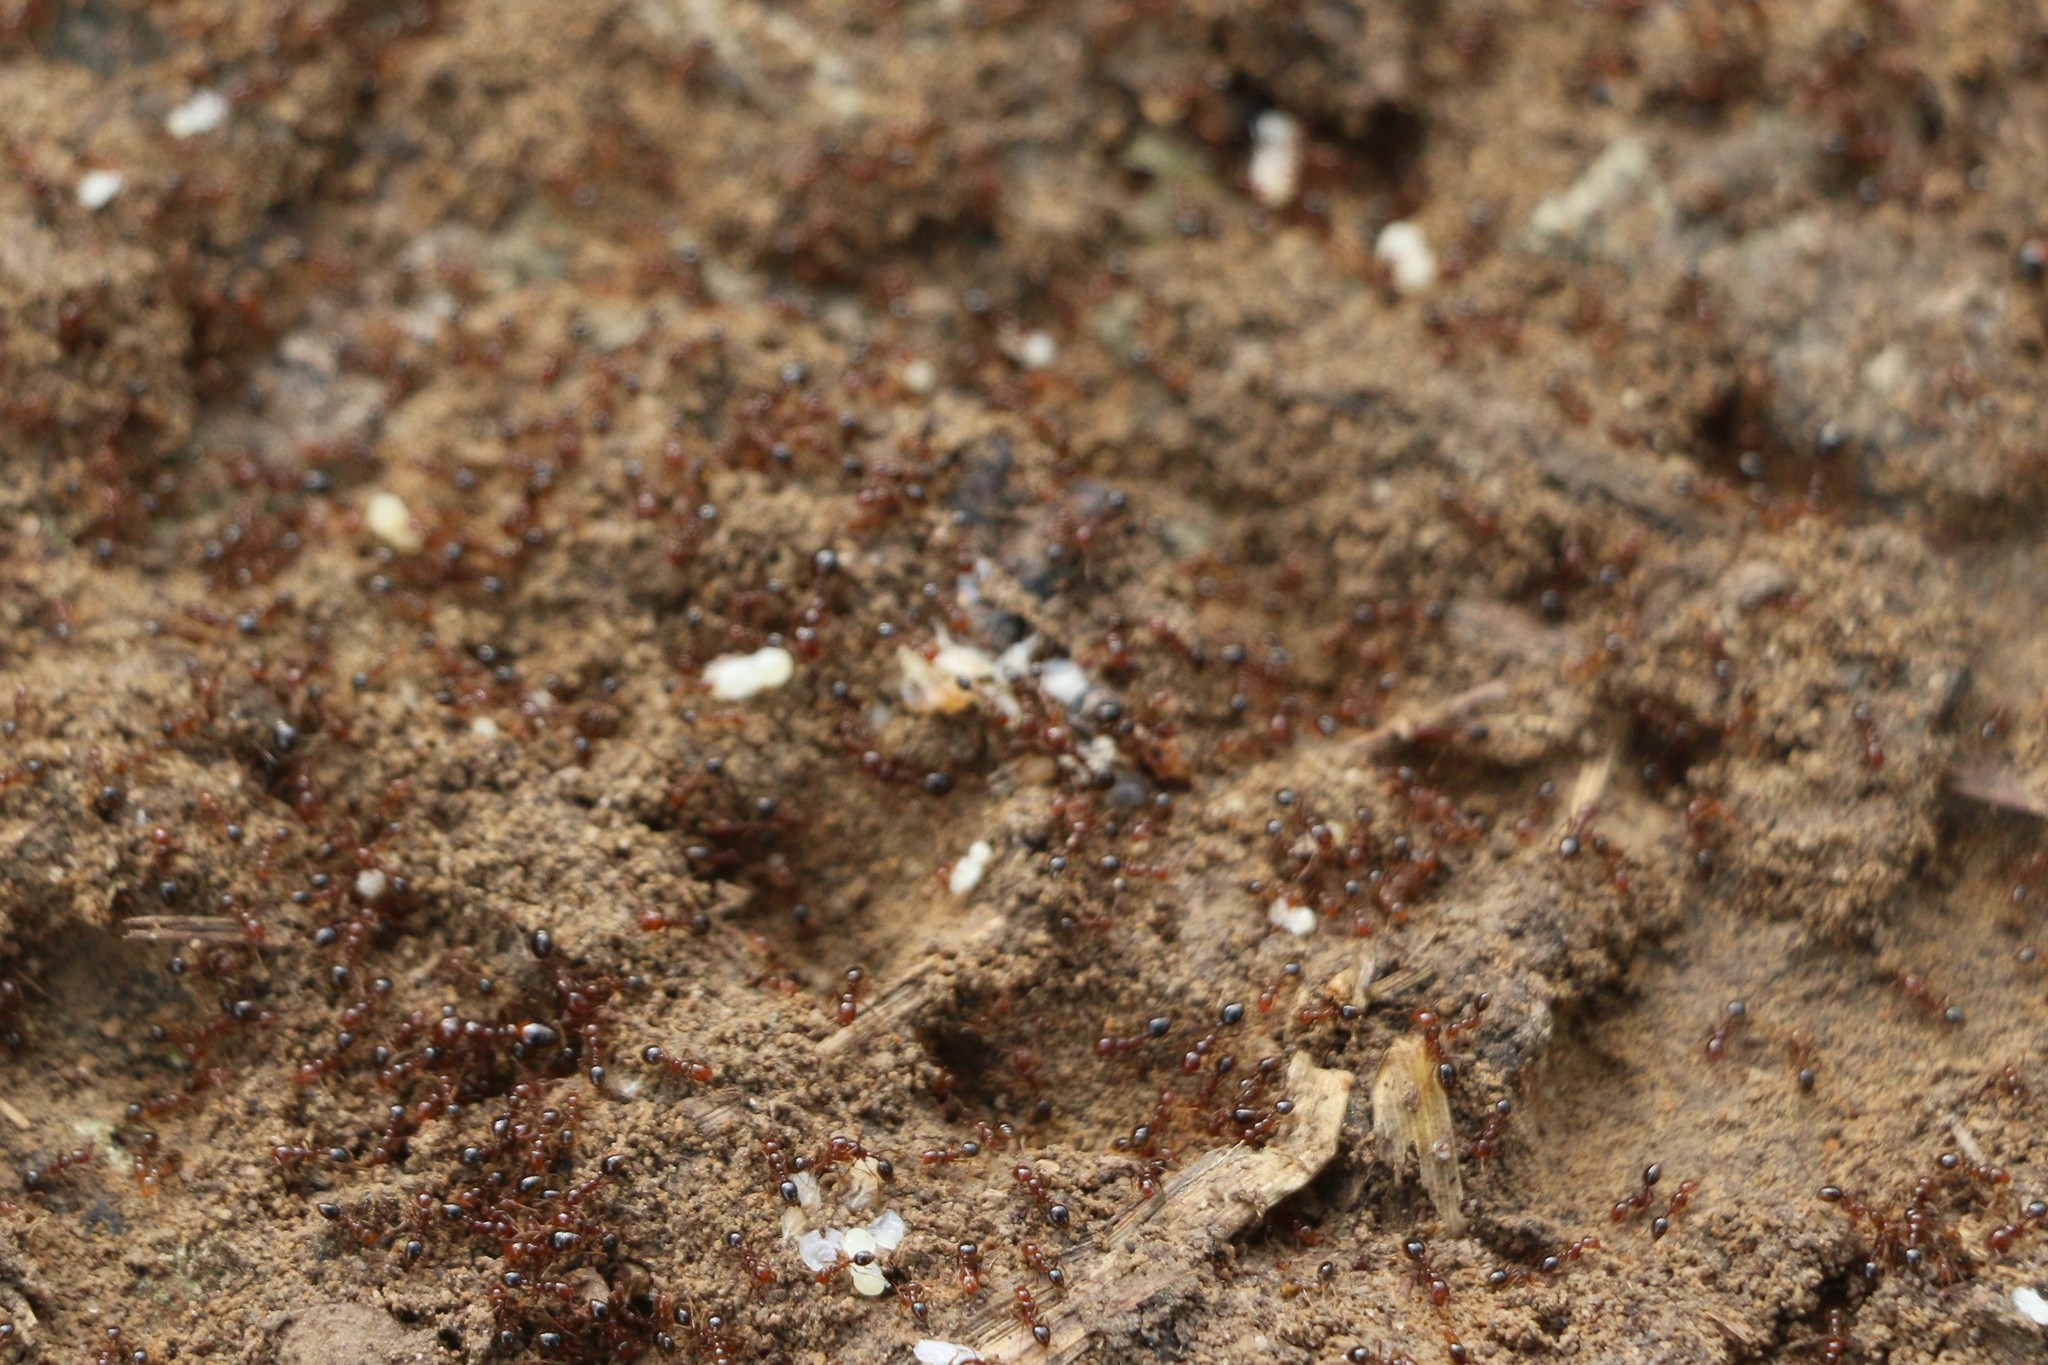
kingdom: Animalia
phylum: Arthropoda
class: Insecta
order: Hymenoptera
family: Formicidae
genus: Solenopsis
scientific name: Solenopsis invicta
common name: Red imported fire ant
